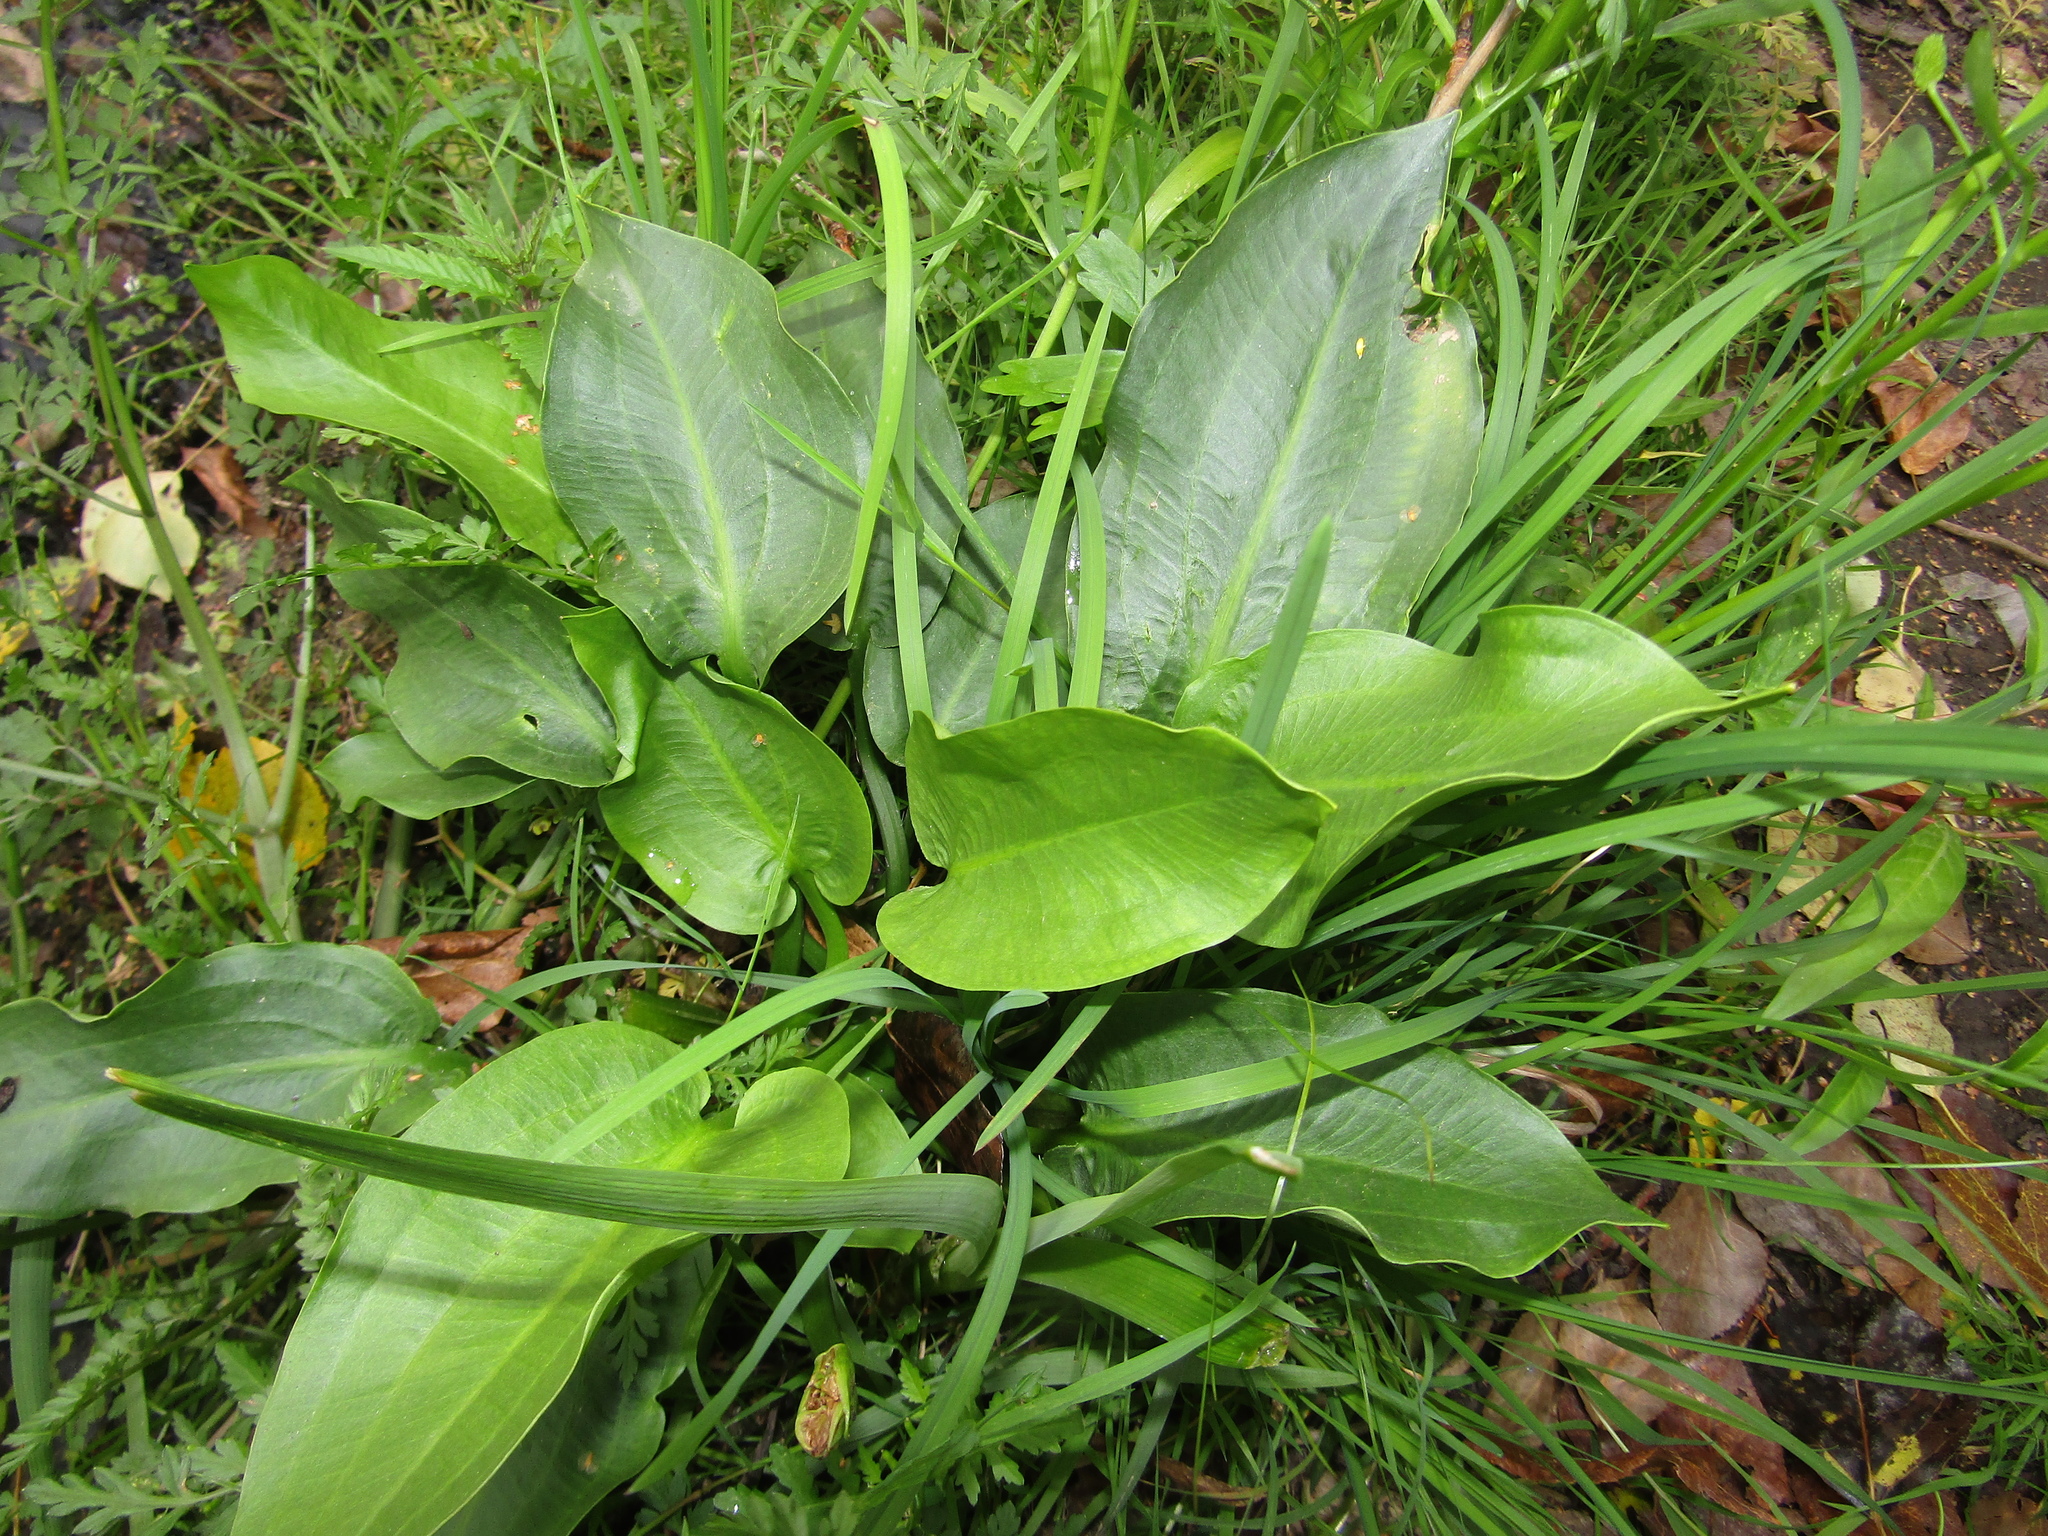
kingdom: Plantae
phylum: Tracheophyta
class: Liliopsida
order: Alismatales
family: Alismataceae
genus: Alisma
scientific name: Alisma plantago-aquatica
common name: Water-plantain
